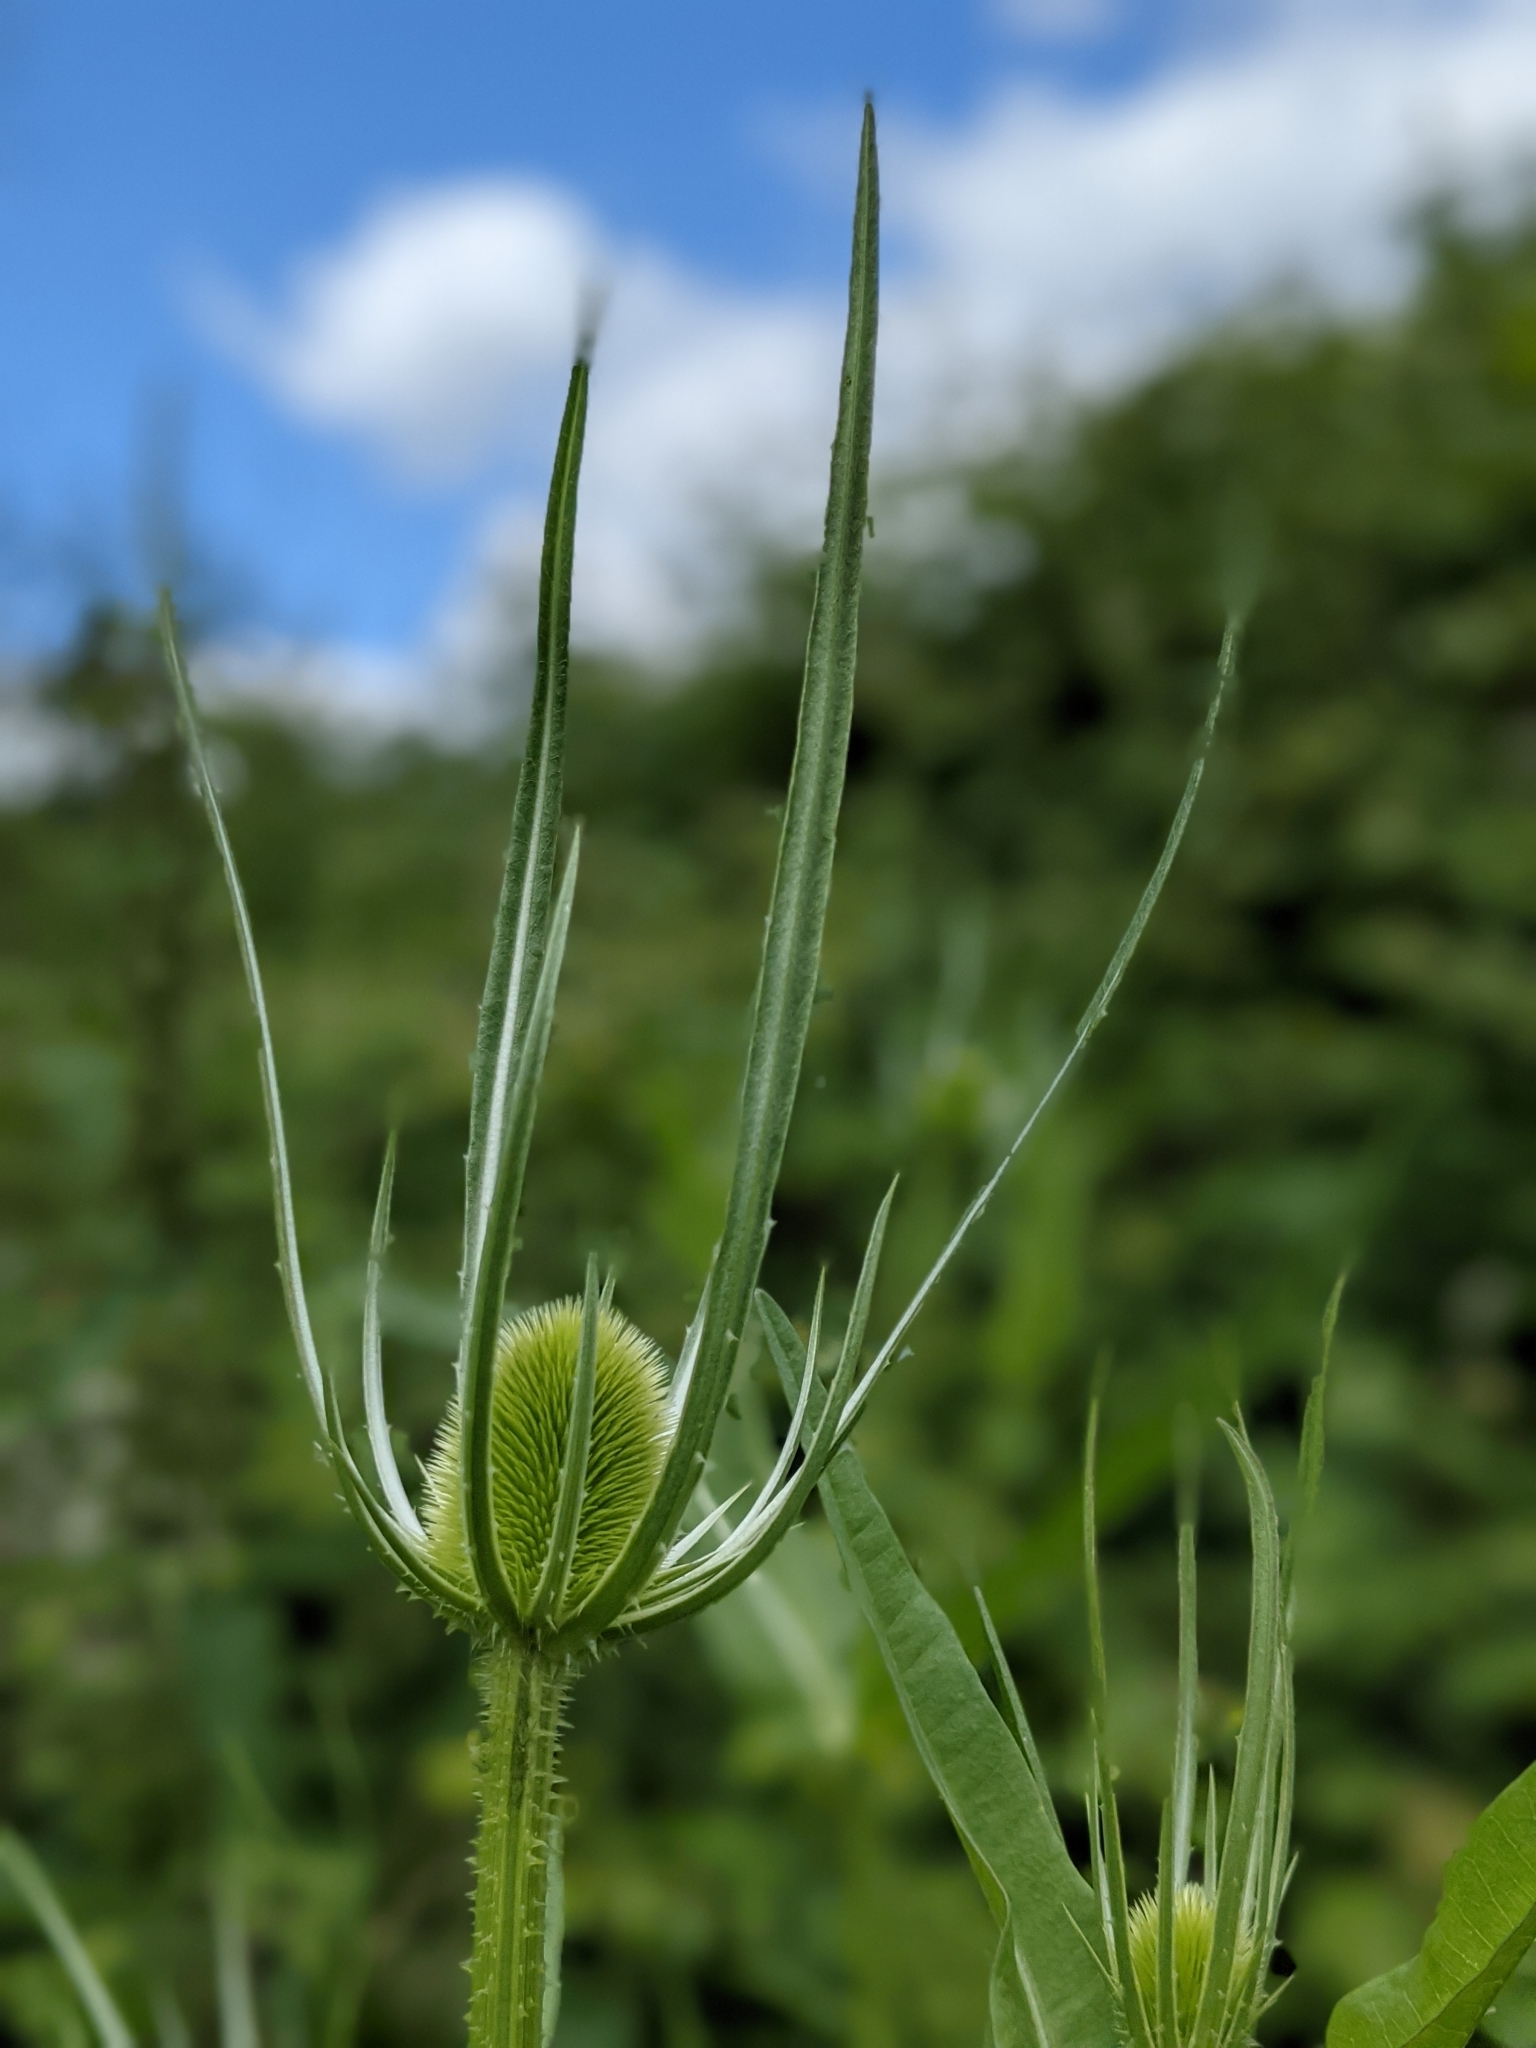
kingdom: Plantae
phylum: Tracheophyta
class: Magnoliopsida
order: Dipsacales
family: Caprifoliaceae
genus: Dipsacus
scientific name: Dipsacus fullonum
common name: Teasel
